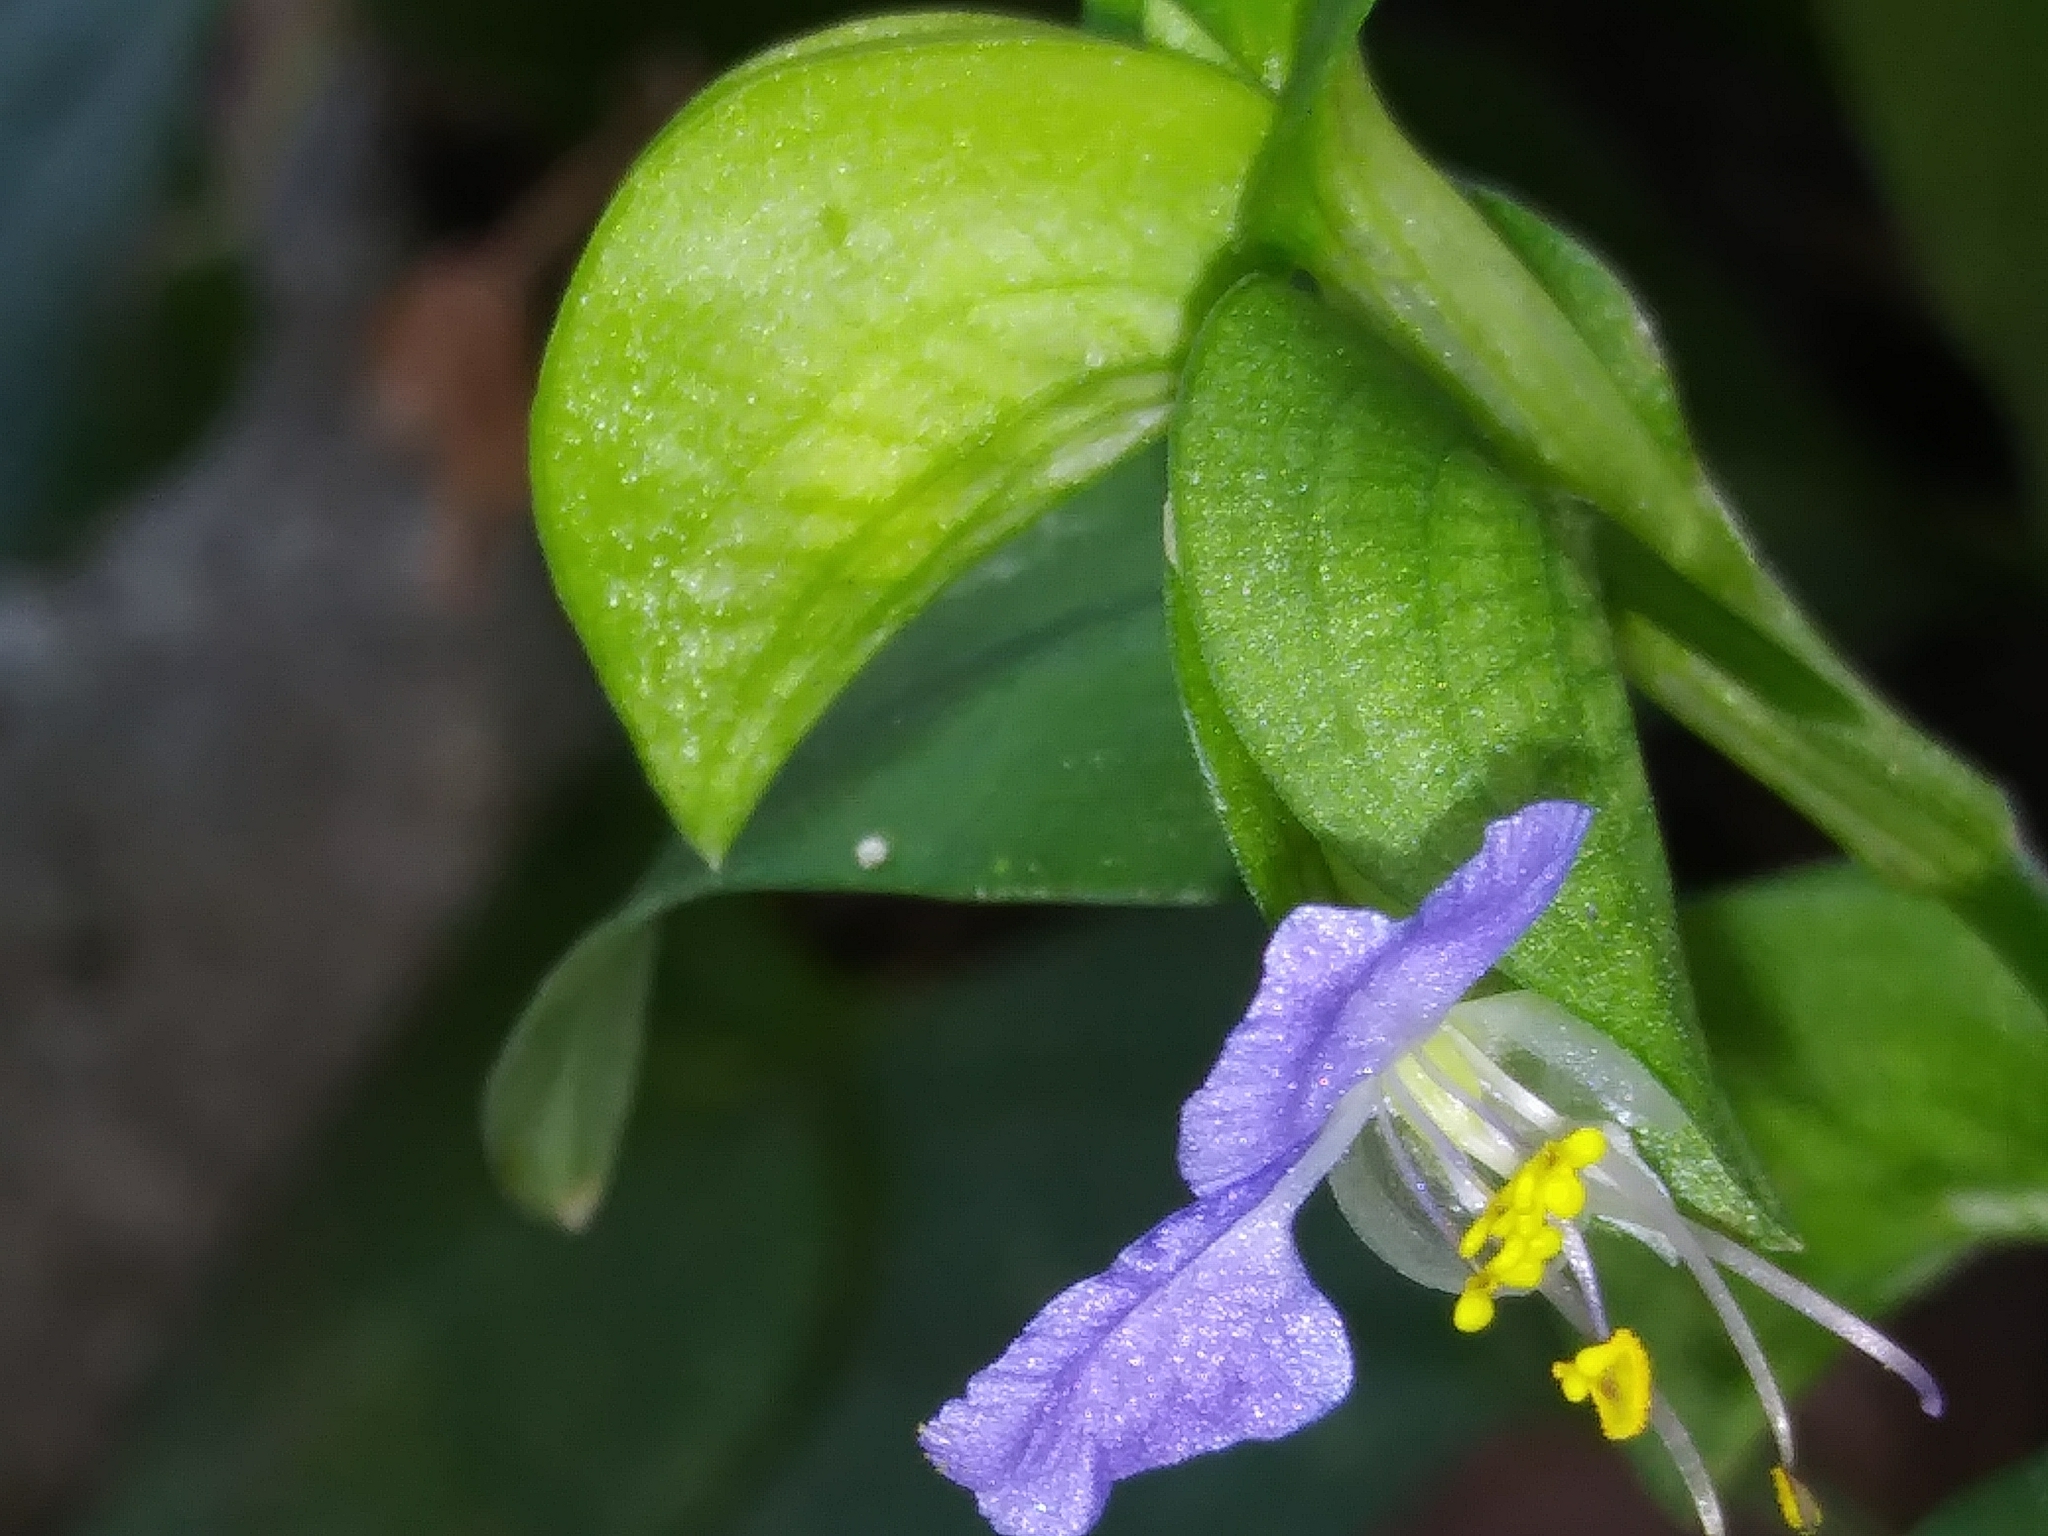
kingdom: Plantae
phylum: Tracheophyta
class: Liliopsida
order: Commelinales
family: Commelinaceae
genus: Commelina
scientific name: Commelina communis
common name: Asiatic dayflower
